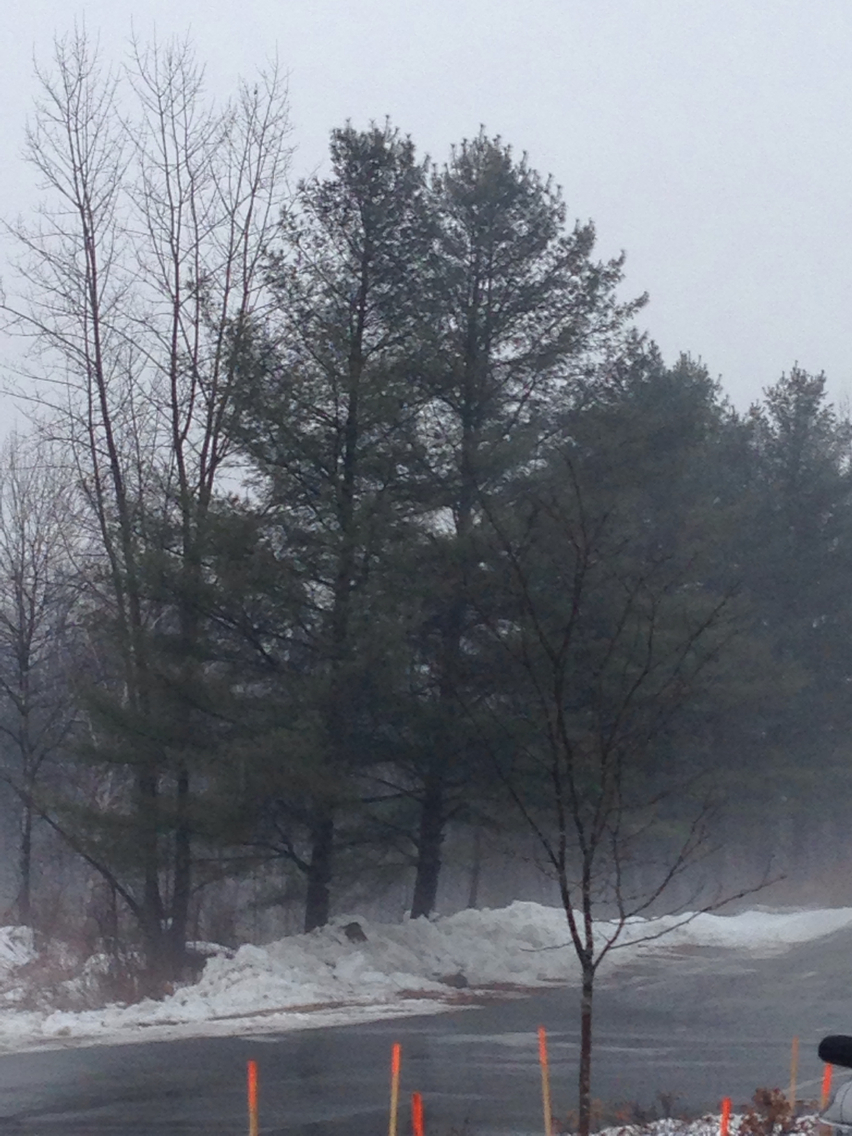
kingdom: Plantae
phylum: Tracheophyta
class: Pinopsida
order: Pinales
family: Pinaceae
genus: Pinus
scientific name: Pinus strobus
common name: Weymouth pine
